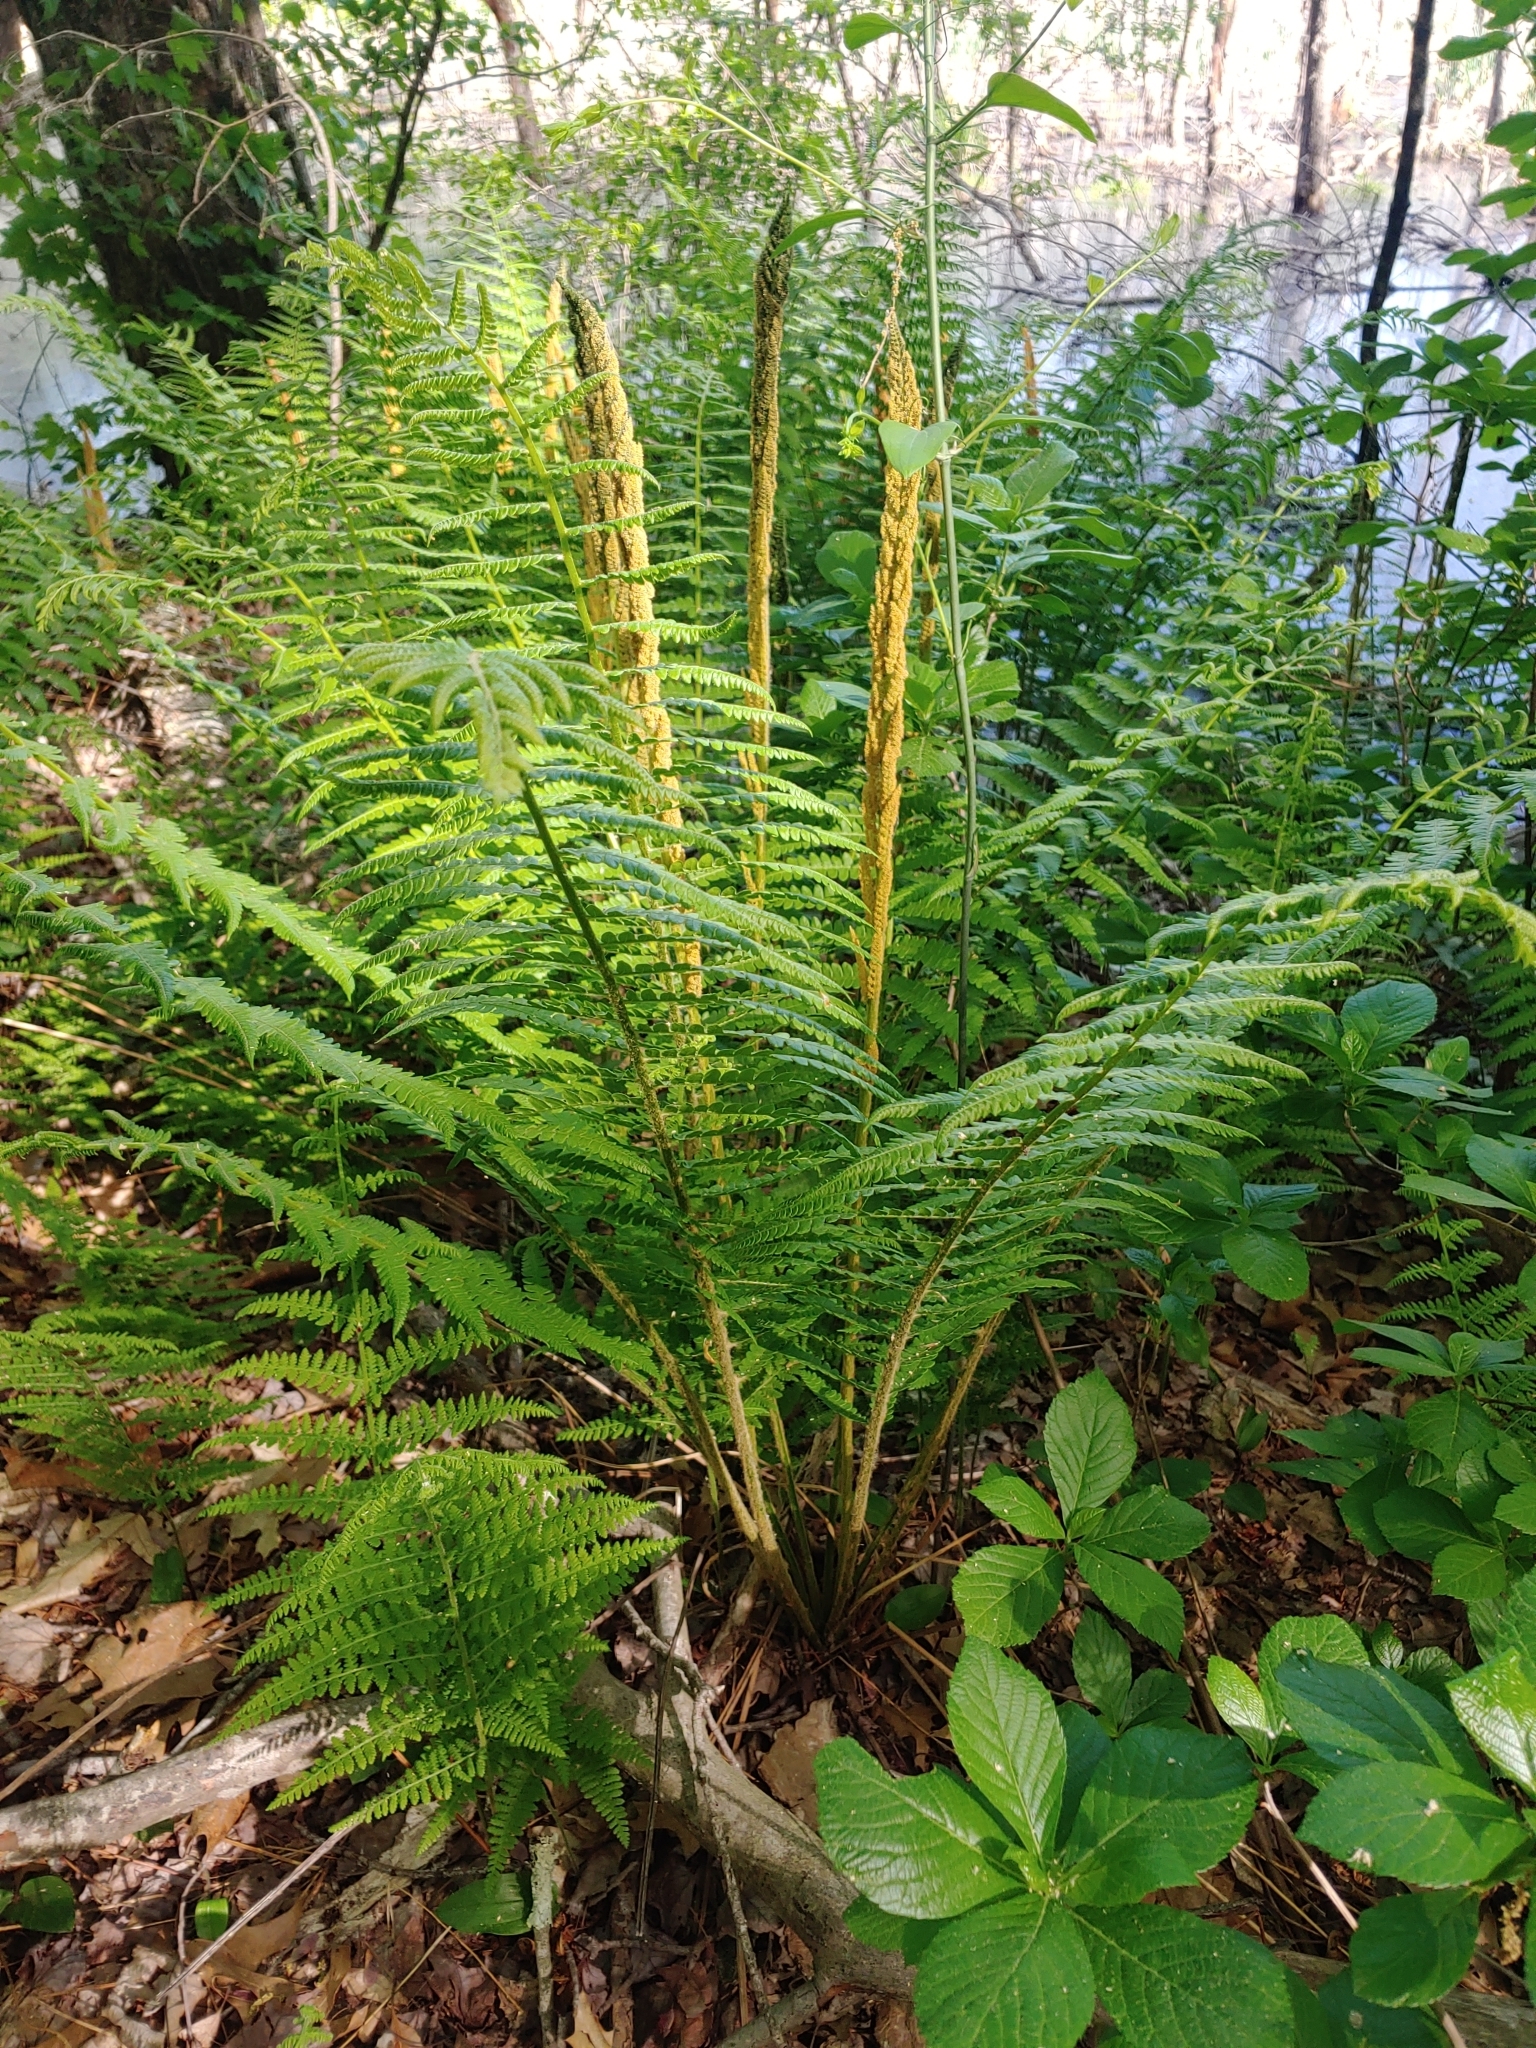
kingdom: Plantae
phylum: Tracheophyta
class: Polypodiopsida
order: Osmundales
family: Osmundaceae
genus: Osmundastrum
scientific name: Osmundastrum cinnamomeum
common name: Cinnamon fern
